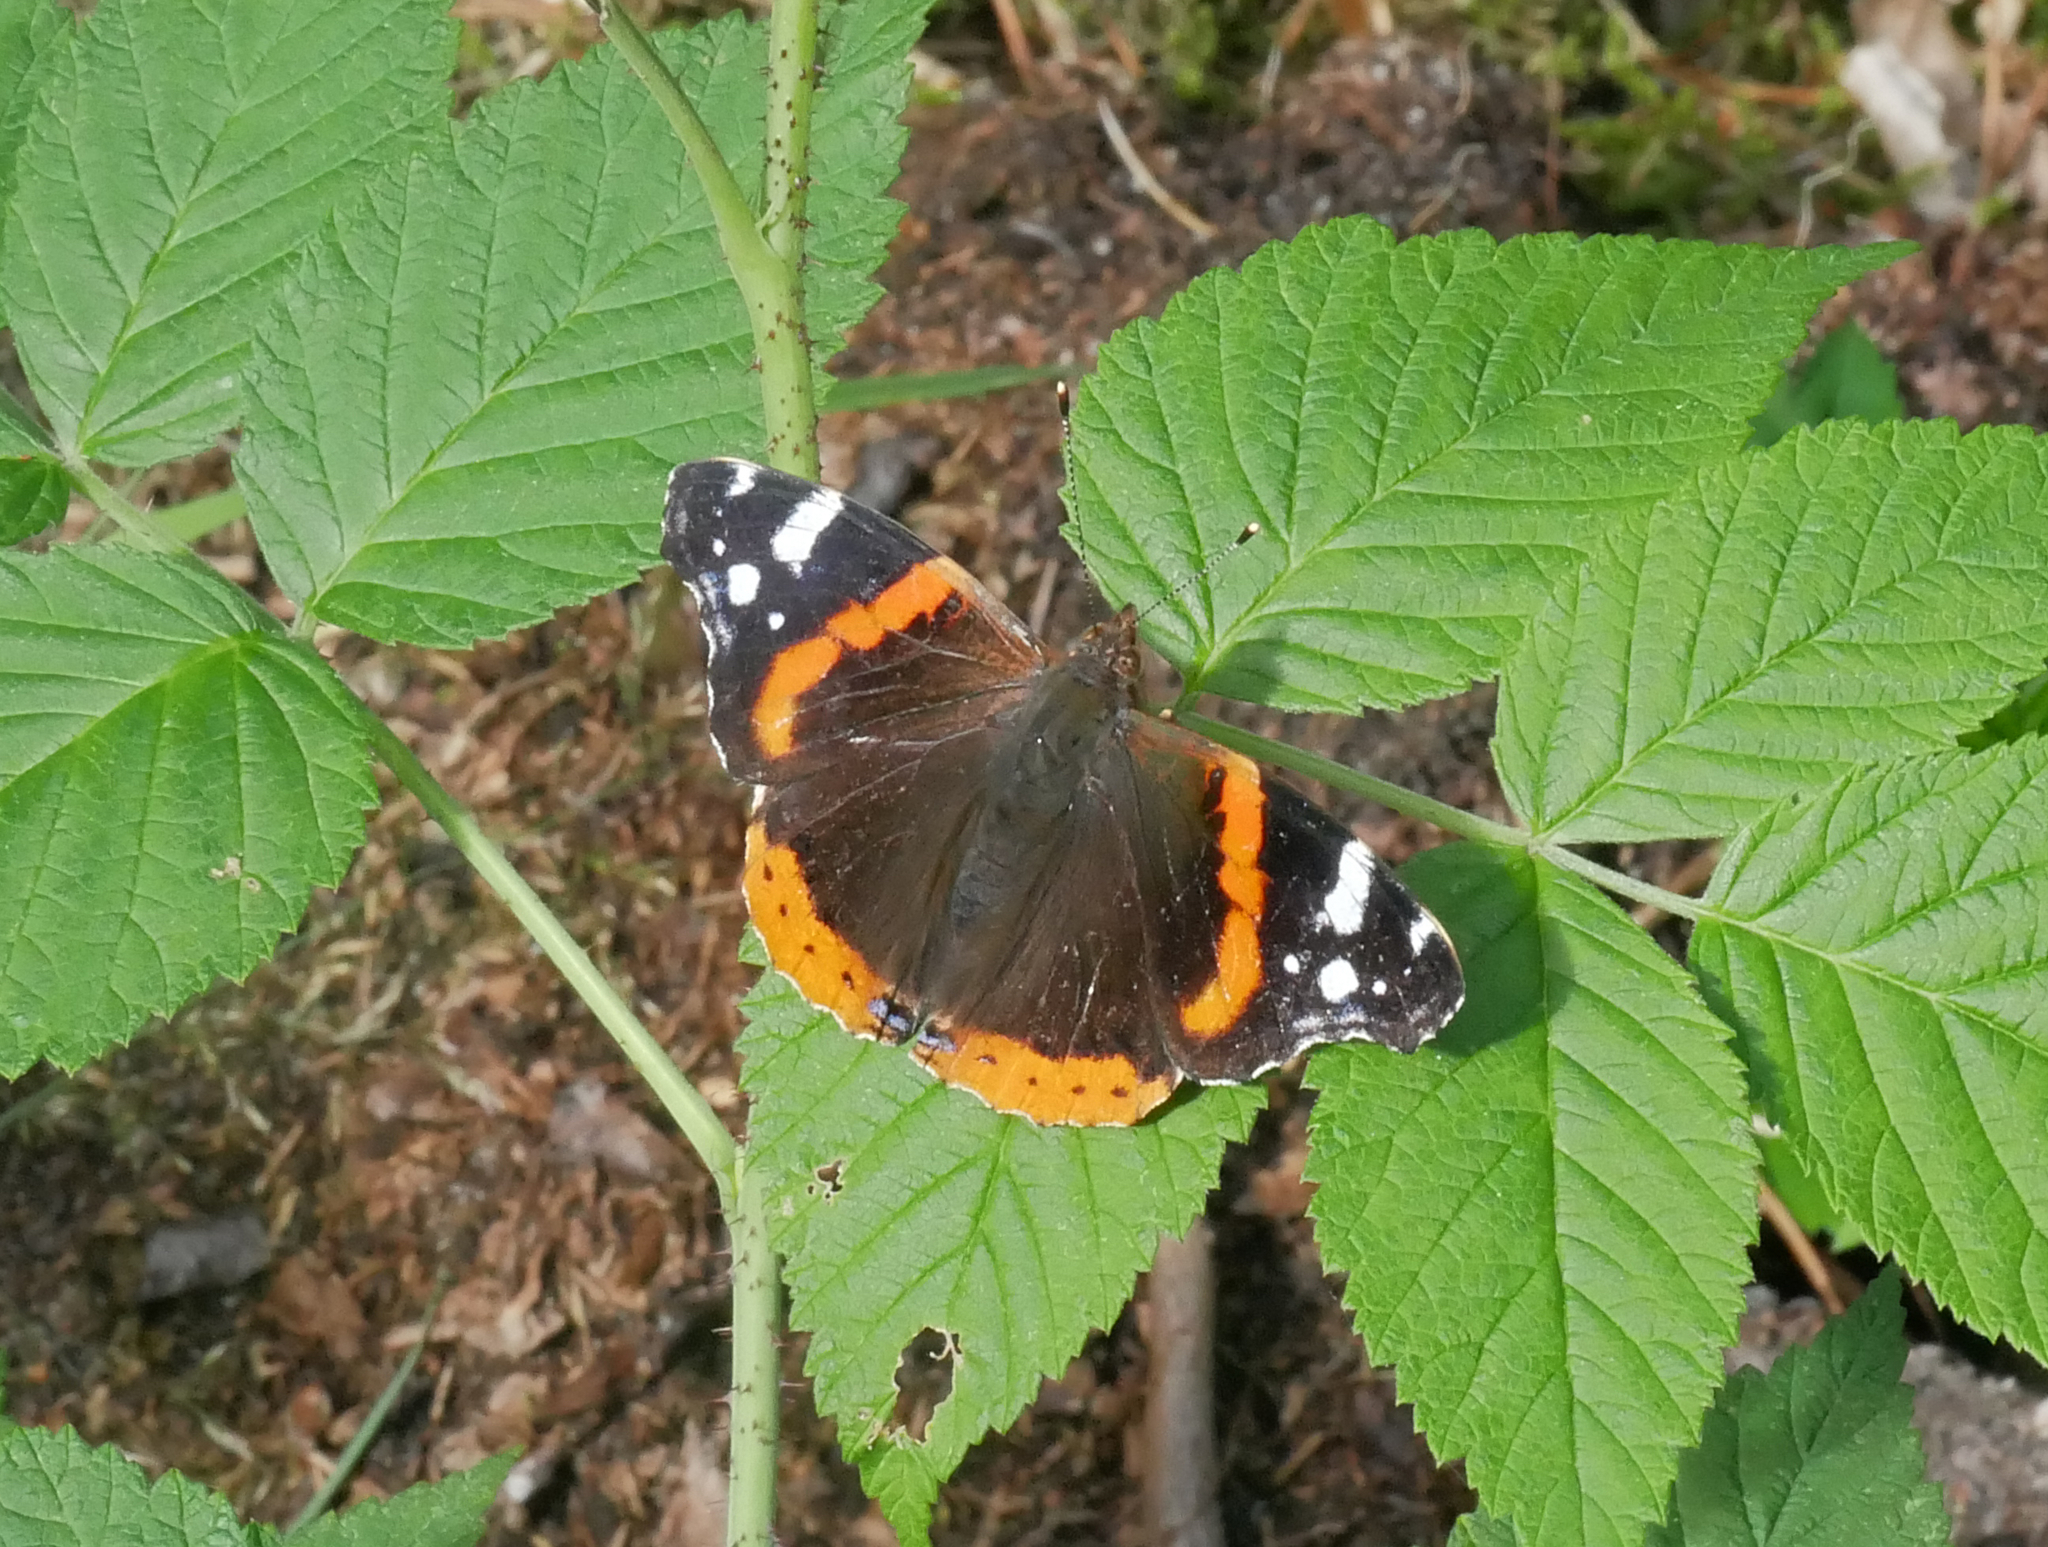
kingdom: Animalia
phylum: Arthropoda
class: Insecta
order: Lepidoptera
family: Nymphalidae
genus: Vanessa
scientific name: Vanessa atalanta
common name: Red admiral
